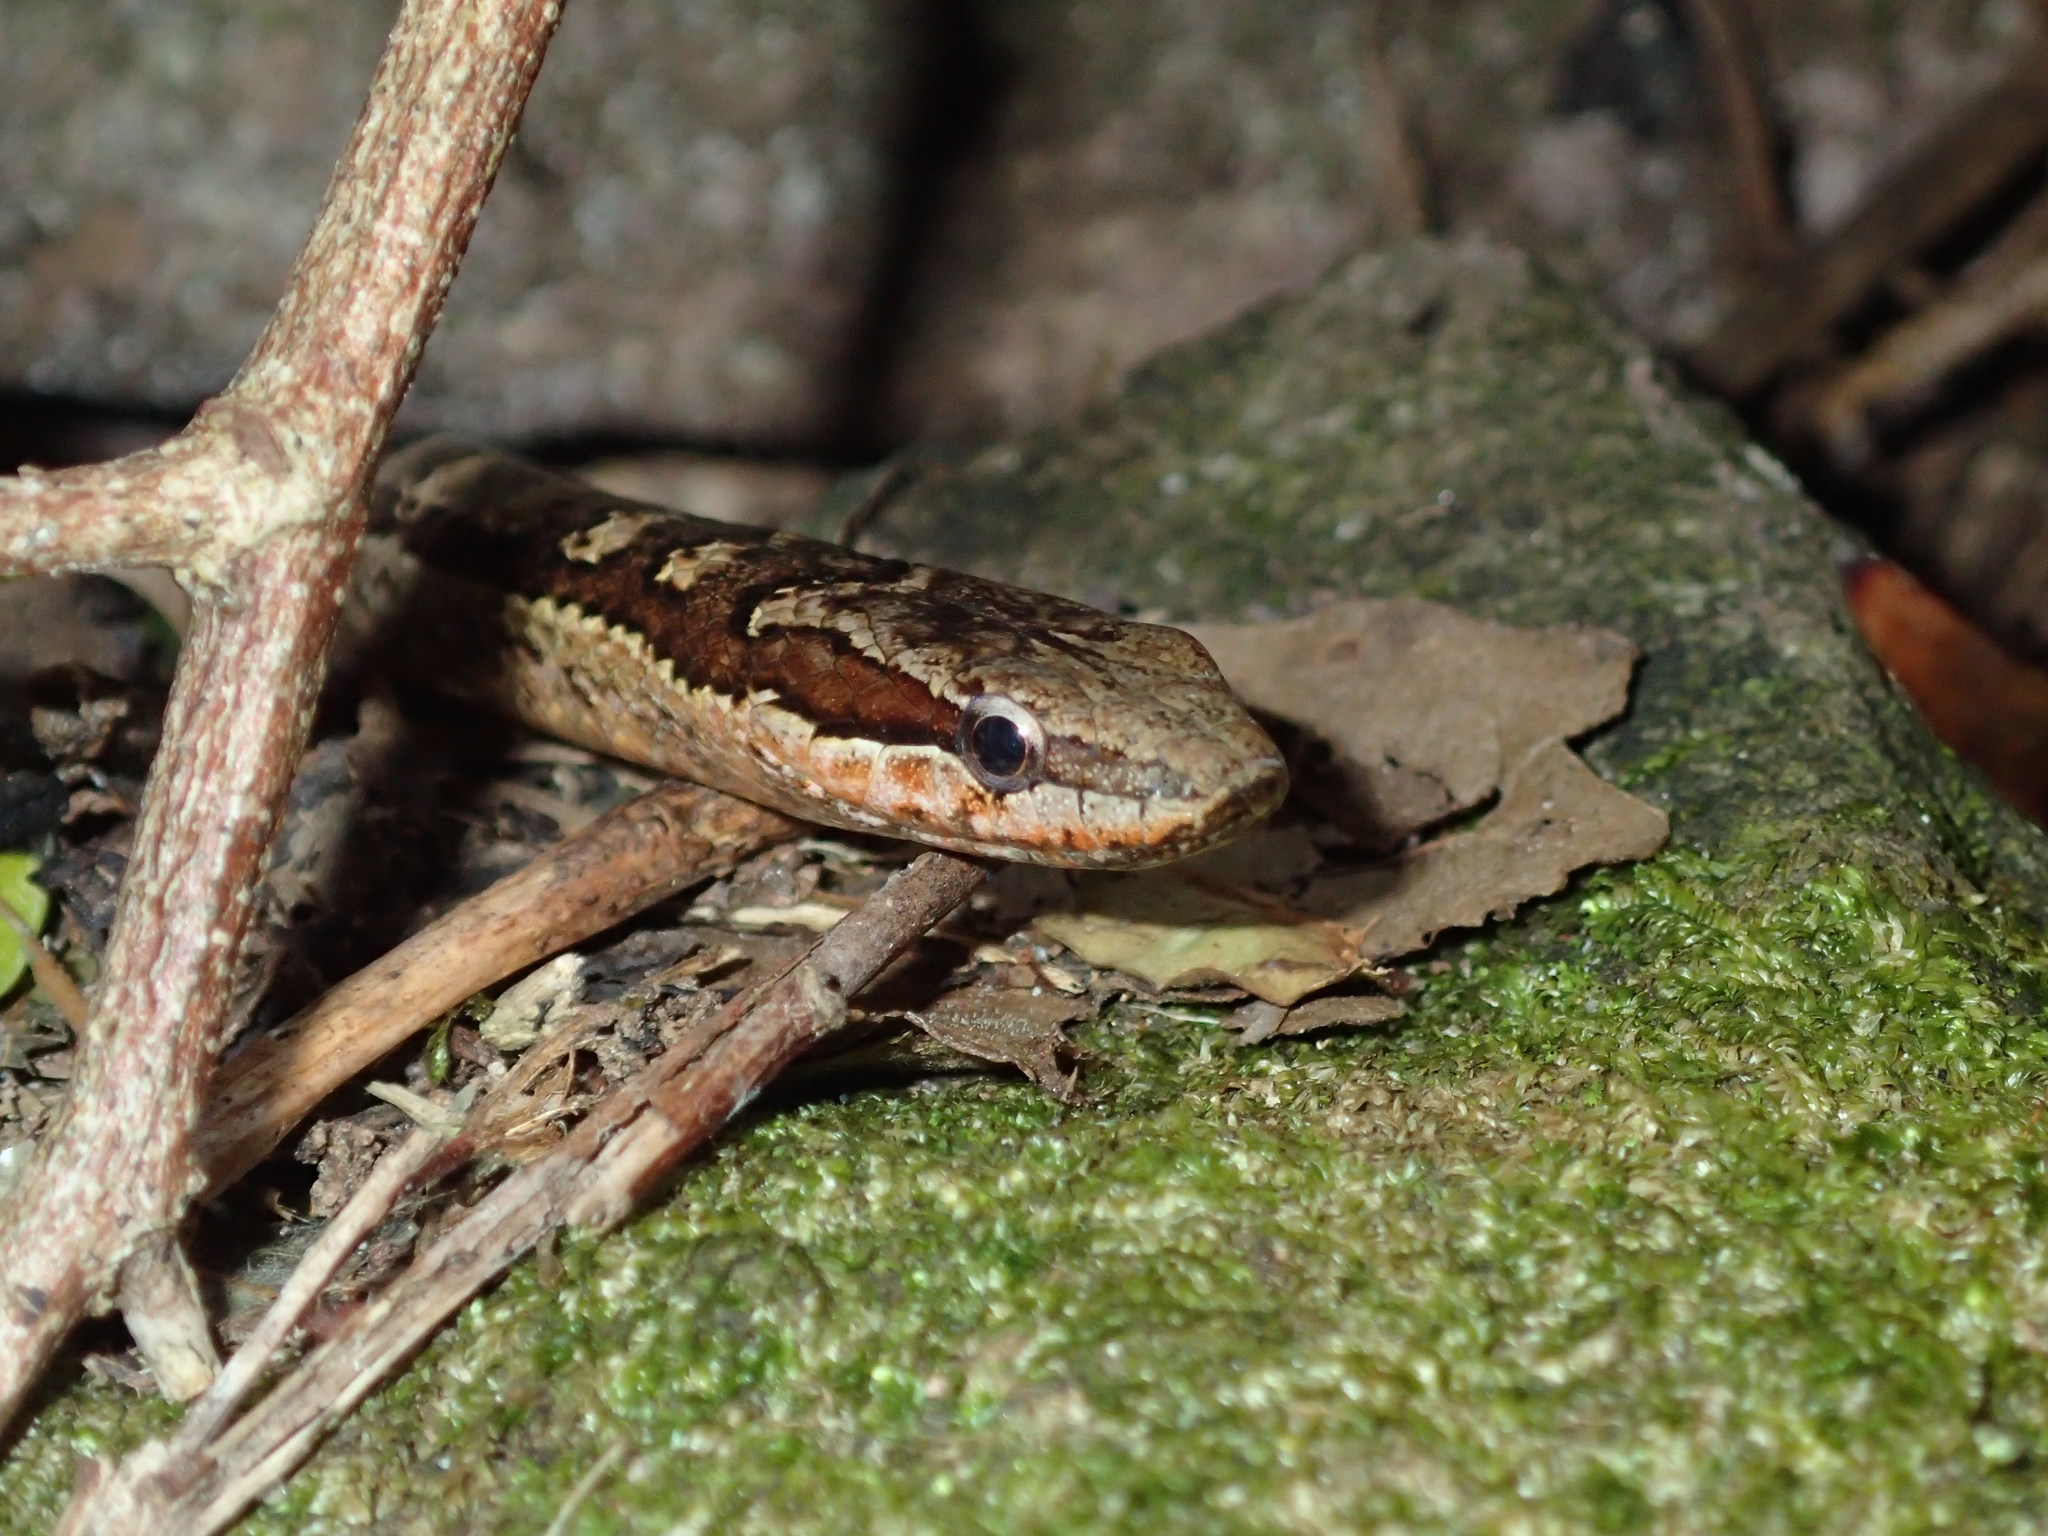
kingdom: Animalia
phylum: Chordata
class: Squamata
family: Colubridae
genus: Alsophis
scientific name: Alsophis rufiventris
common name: Orange-bellied racer
